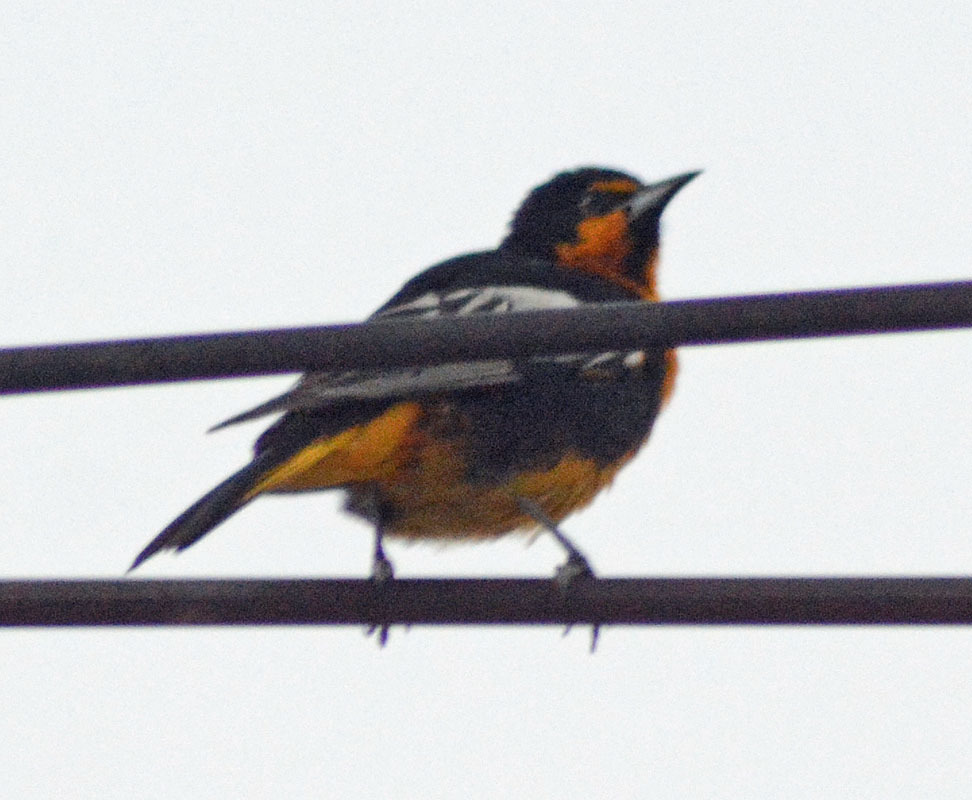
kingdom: Animalia
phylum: Chordata
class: Aves
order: Passeriformes
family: Icteridae
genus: Icterus
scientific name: Icterus abeillei
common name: Black-backed oriole
